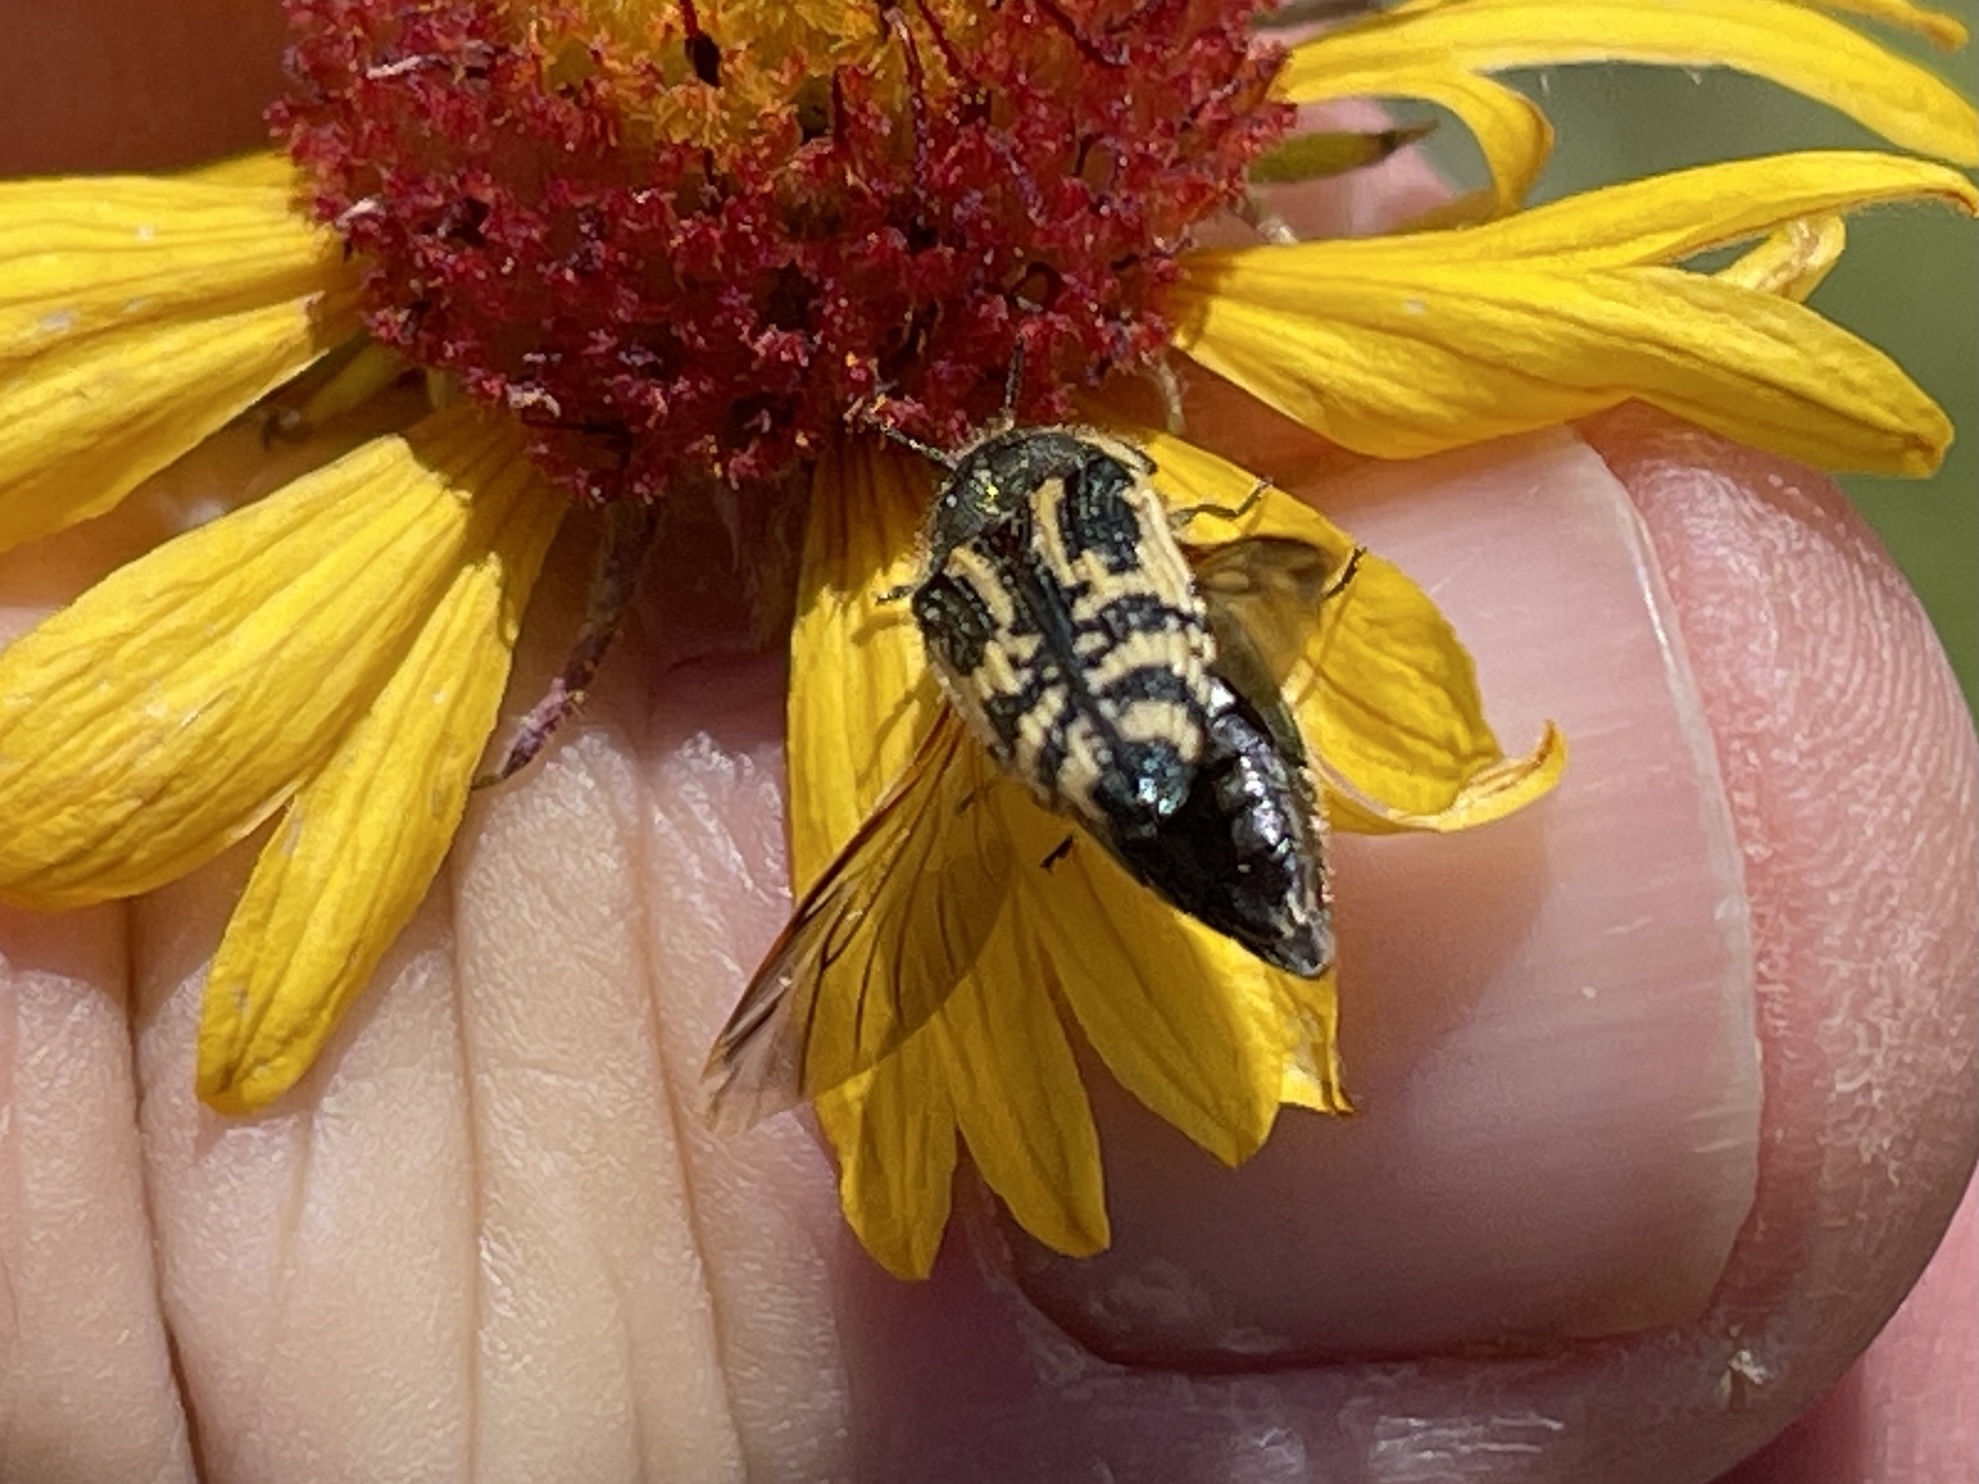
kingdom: Animalia
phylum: Arthropoda
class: Insecta
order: Coleoptera
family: Buprestidae
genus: Acmaeodera
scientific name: Acmaeodera amplicollis
